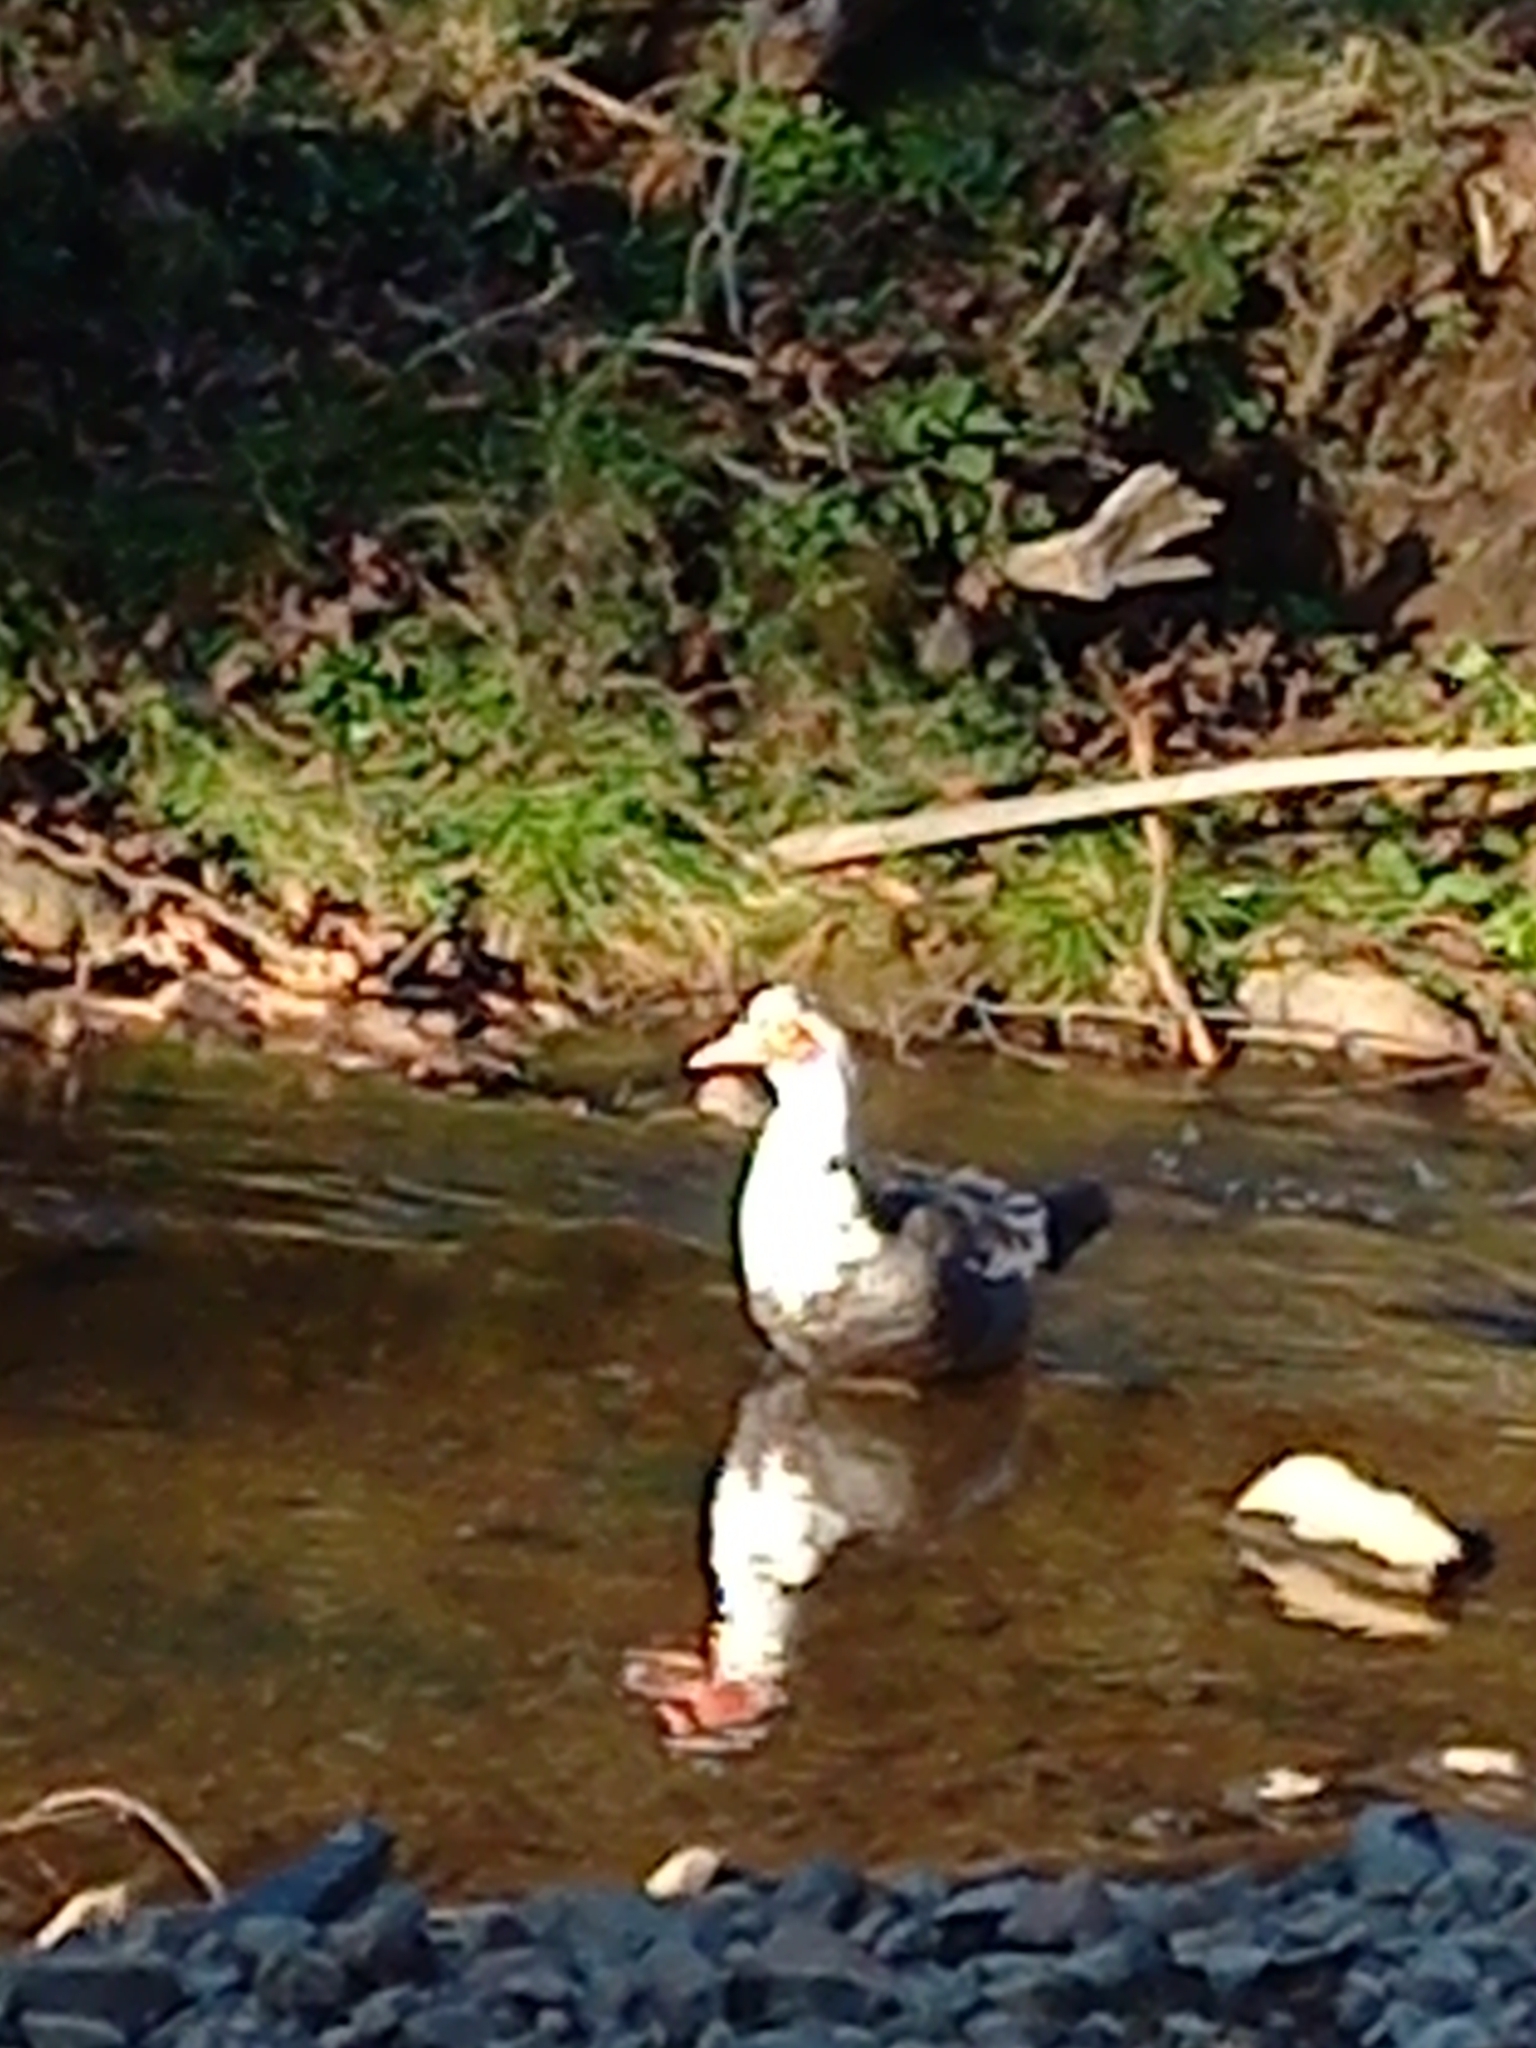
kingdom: Animalia
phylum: Chordata
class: Aves
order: Anseriformes
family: Anatidae
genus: Cairina
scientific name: Cairina moschata
